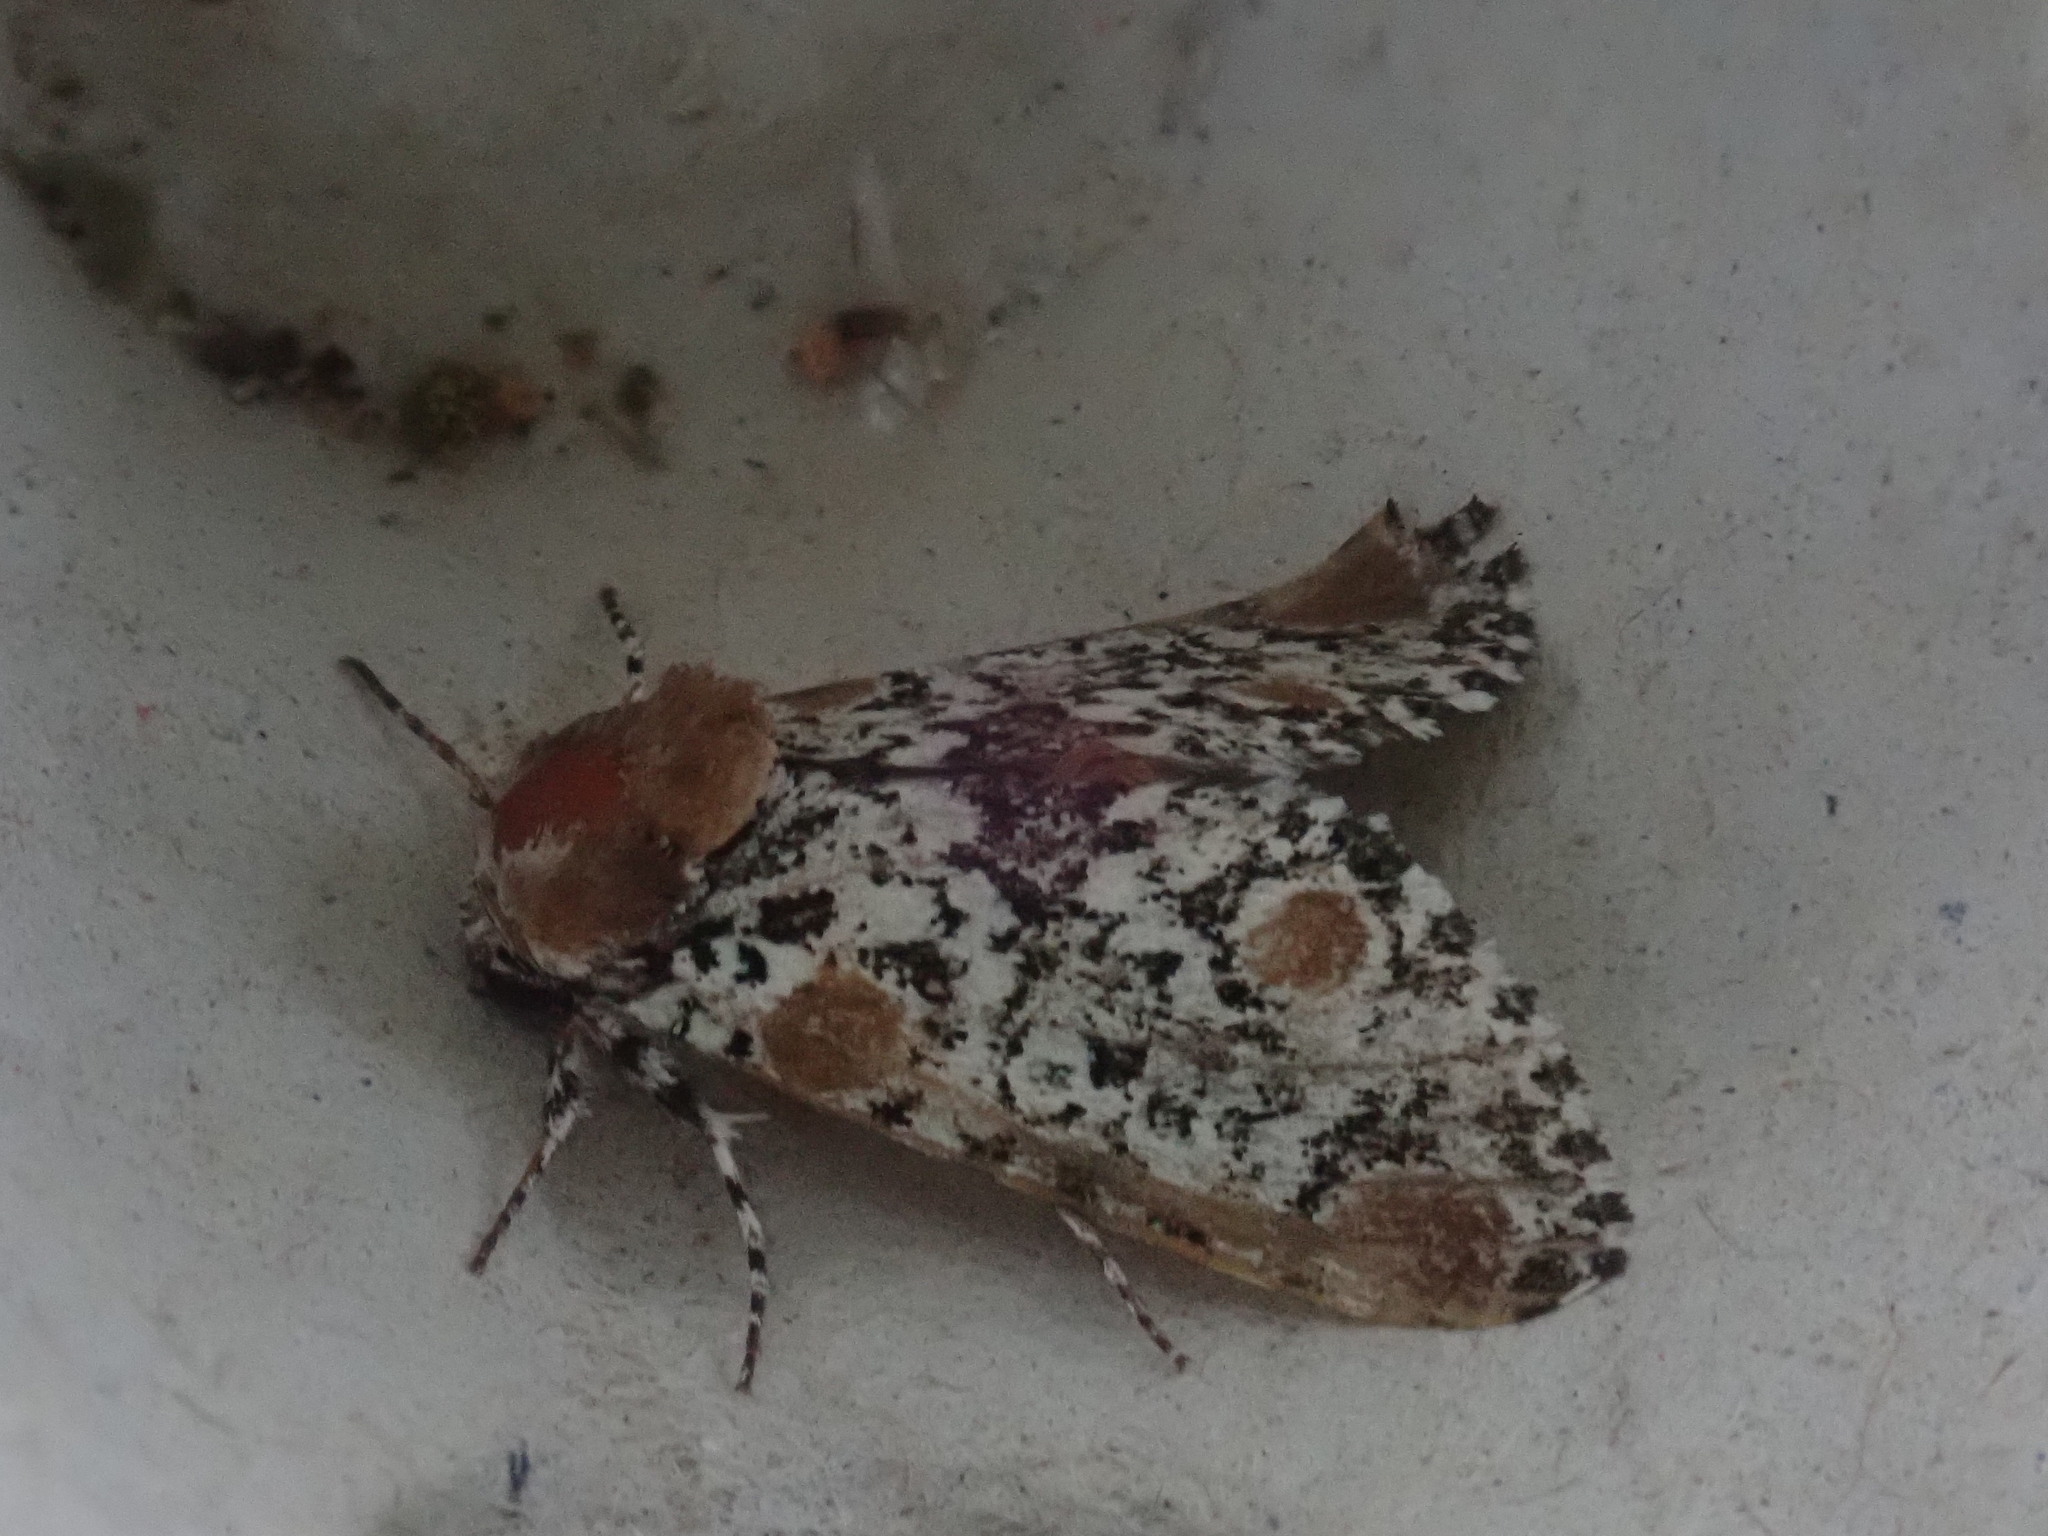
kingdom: Animalia
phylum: Arthropoda
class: Insecta
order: Lepidoptera
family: Noctuidae
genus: Harrisimemna
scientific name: Harrisimemna trisignata
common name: Harris threespot
